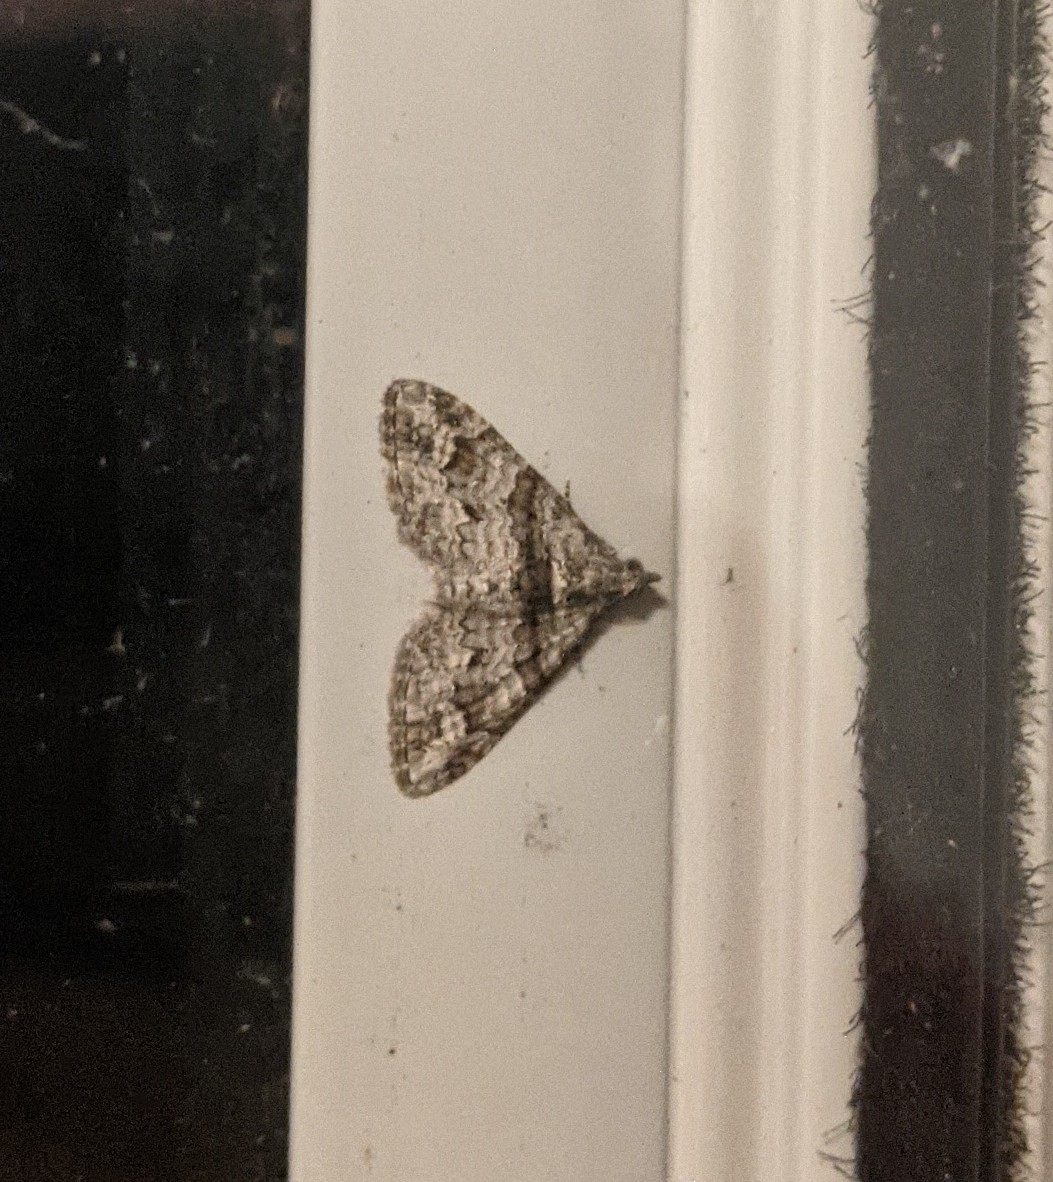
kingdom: Animalia
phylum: Arthropoda
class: Insecta
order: Lepidoptera
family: Geometridae
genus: Phrissogonus
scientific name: Phrissogonus laticostata
